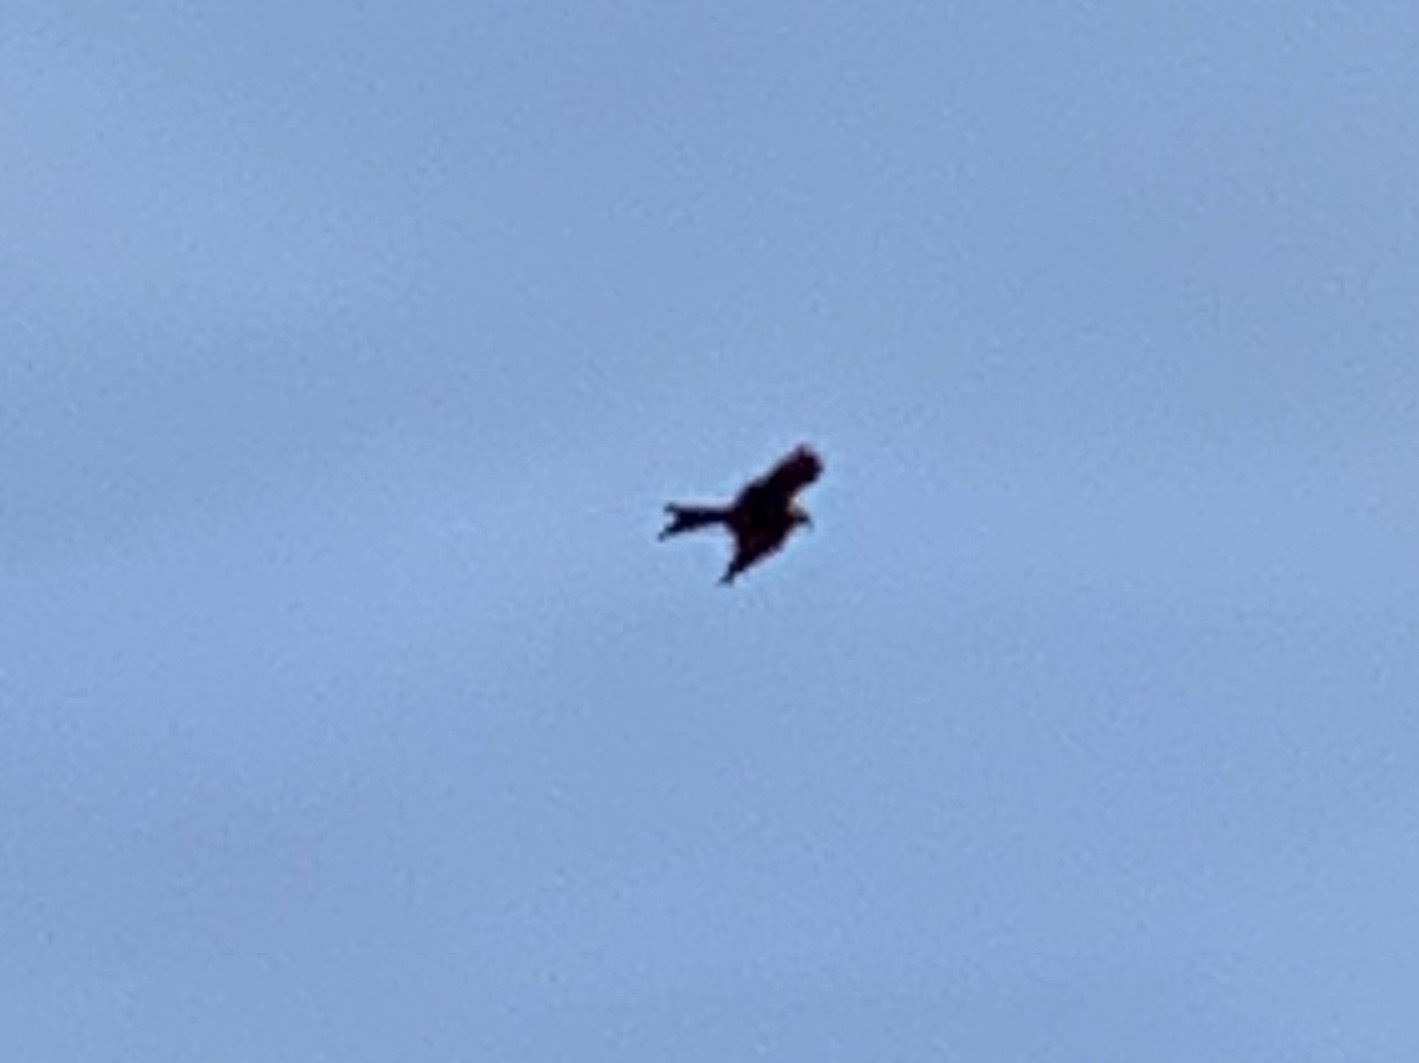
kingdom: Animalia
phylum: Chordata
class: Aves
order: Accipitriformes
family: Accipitridae
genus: Milvus
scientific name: Milvus milvus
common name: Red kite
